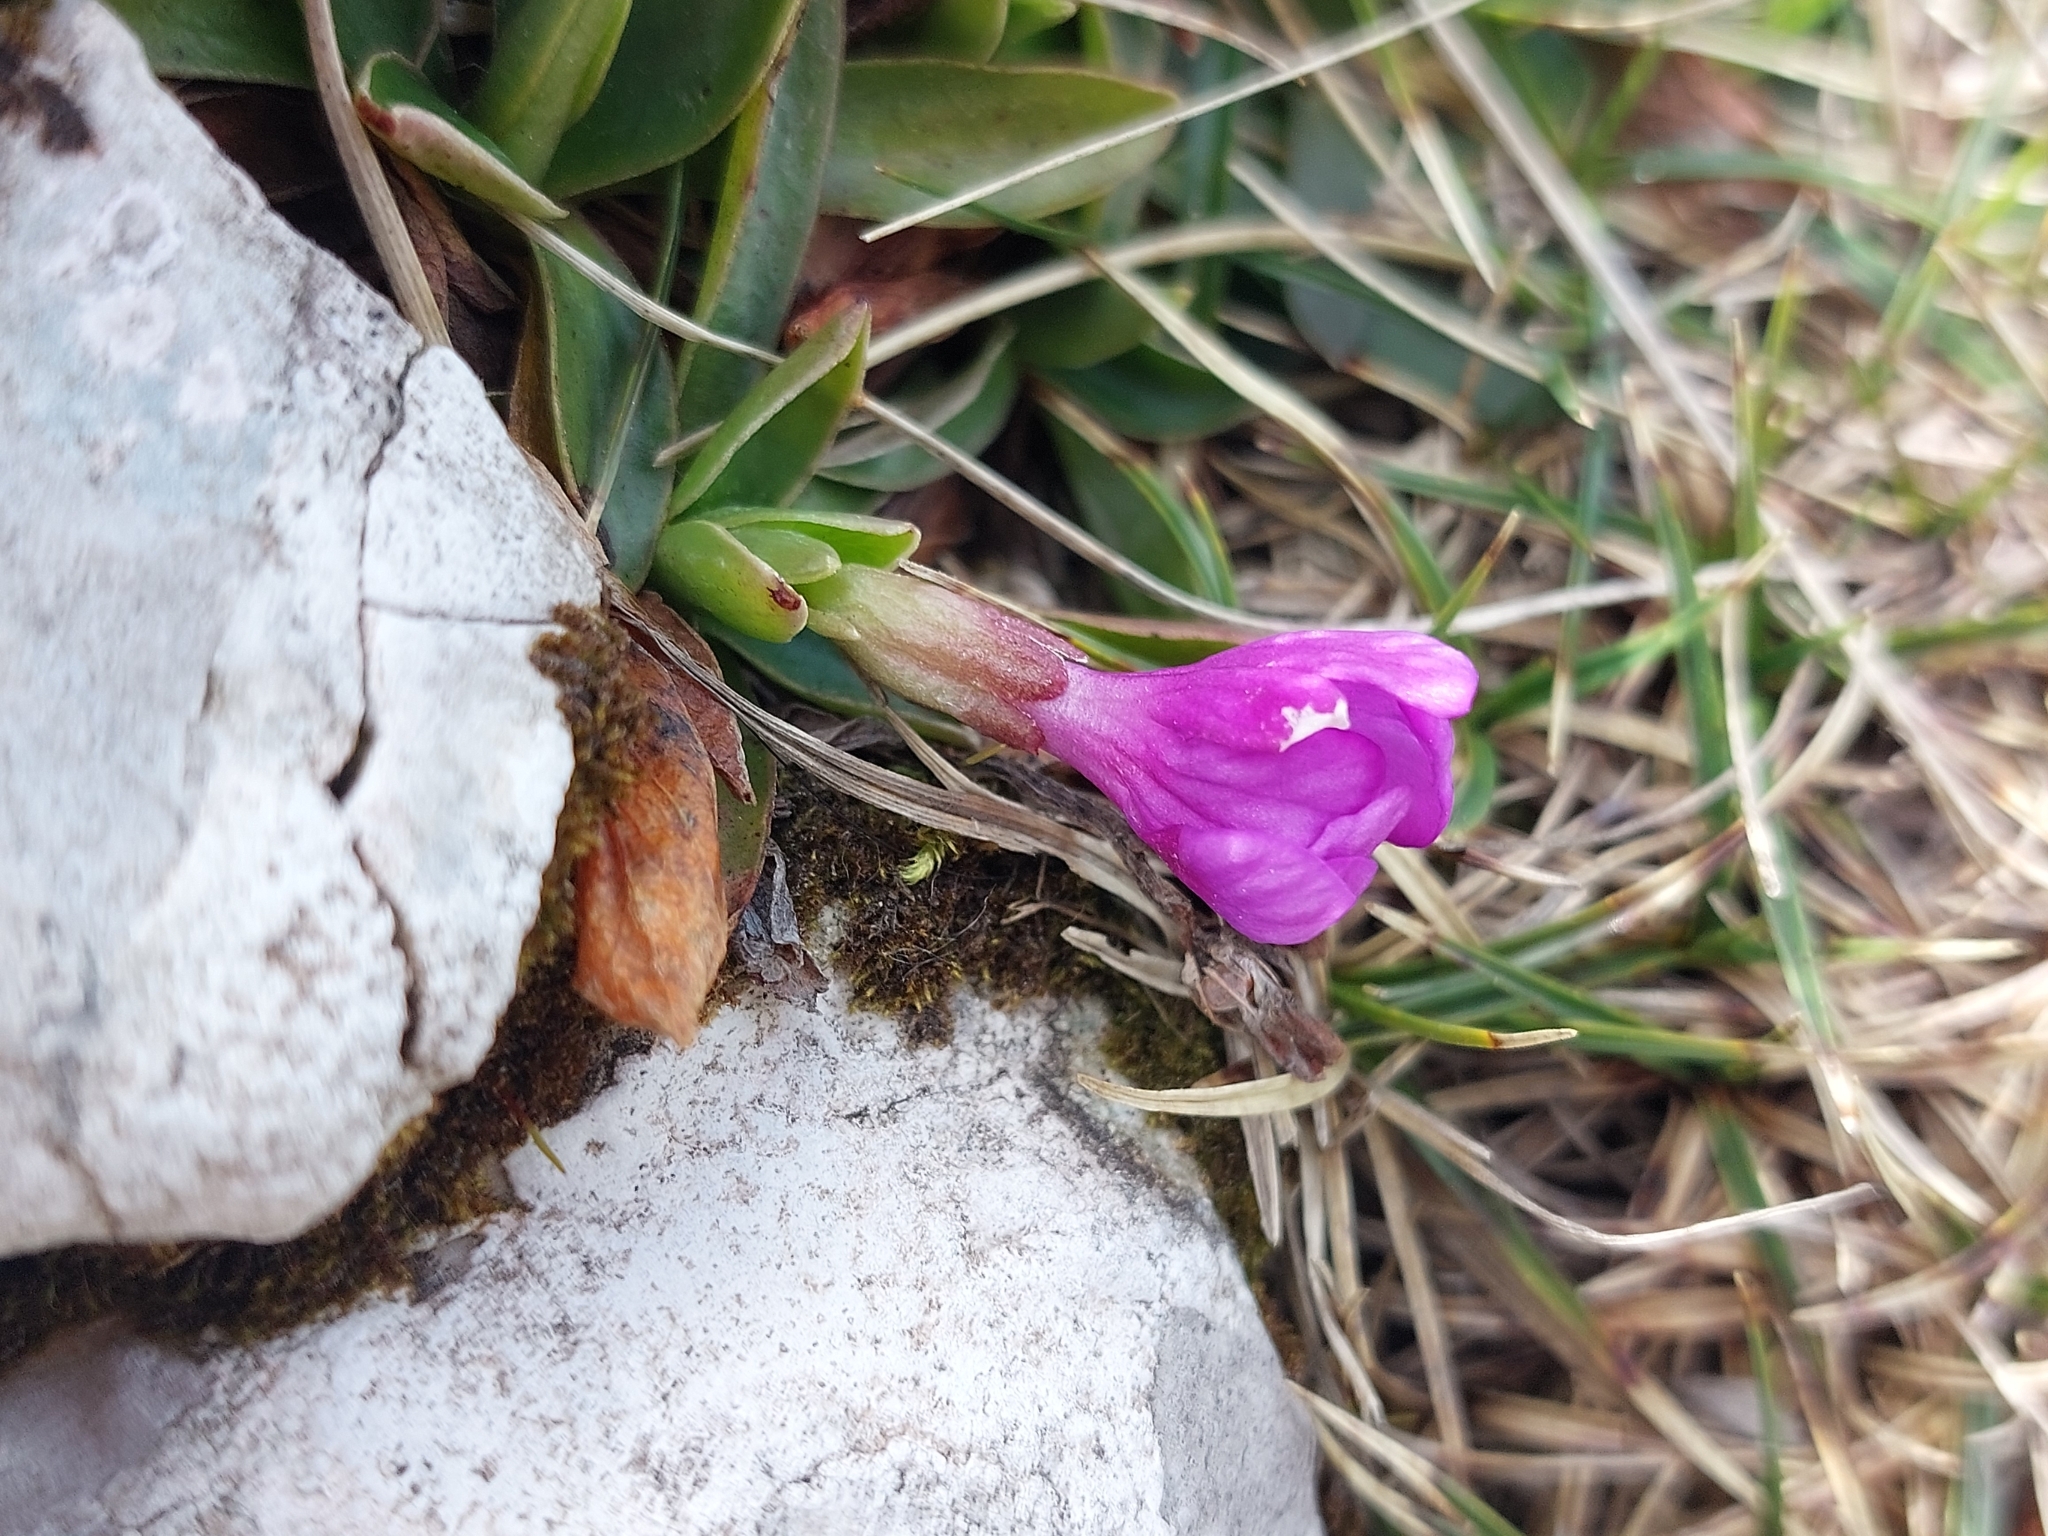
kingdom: Plantae
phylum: Tracheophyta
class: Magnoliopsida
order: Ericales
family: Primulaceae
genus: Primula
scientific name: Primula wulfeniana
